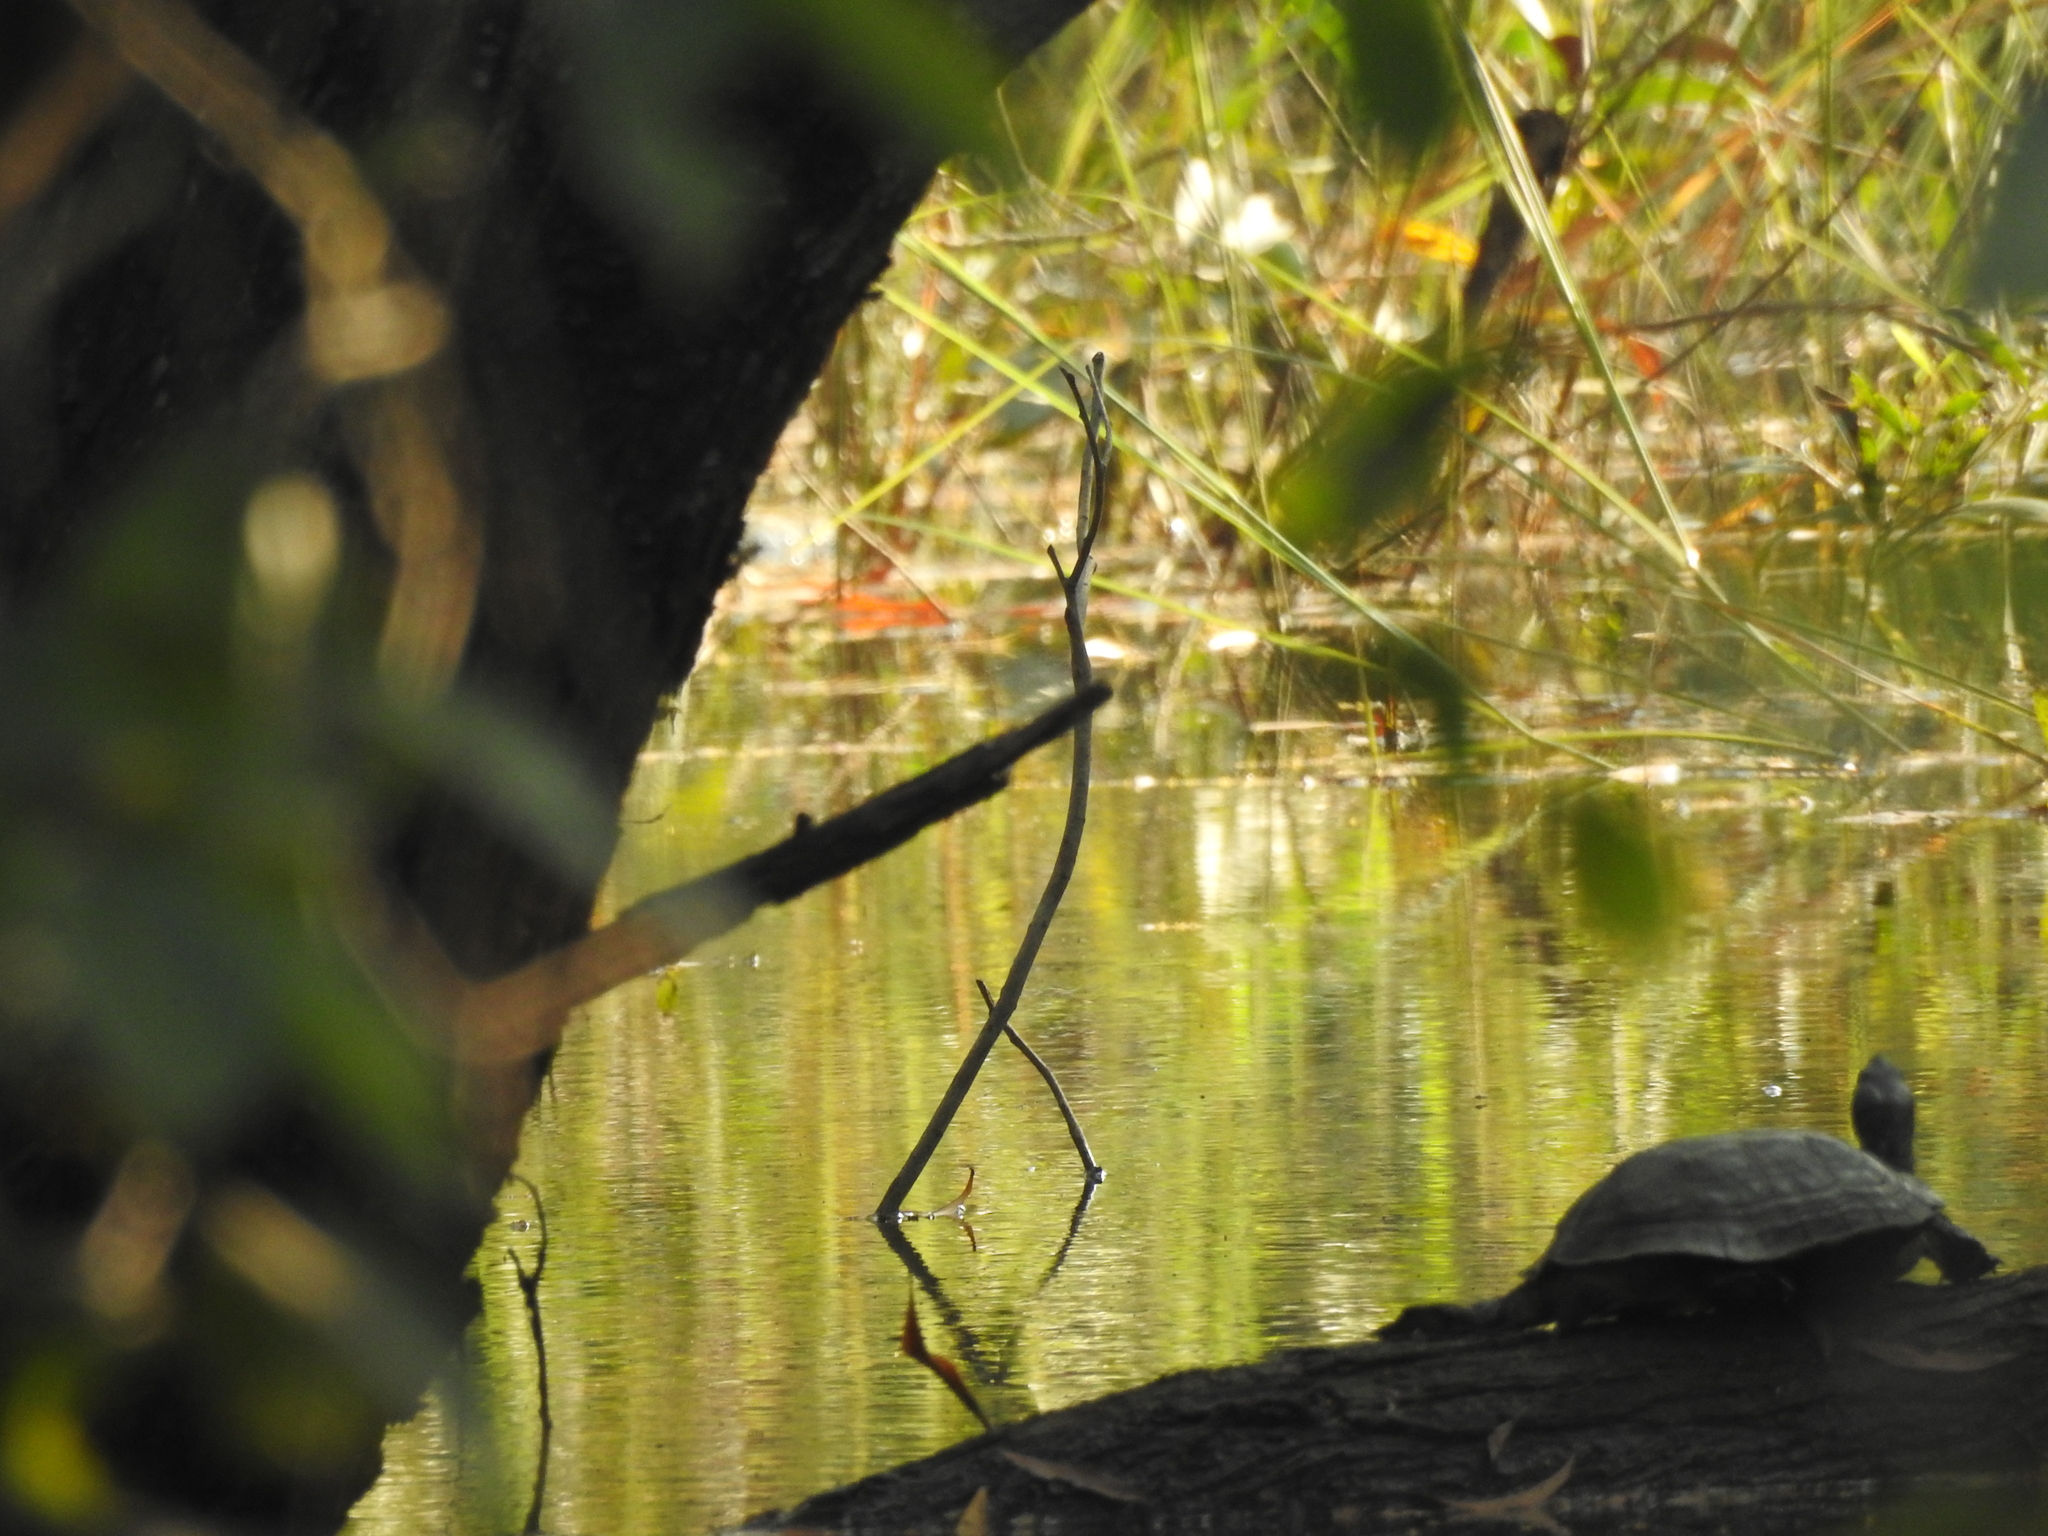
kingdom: Animalia
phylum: Chordata
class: Testudines
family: Geoemydidae
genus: Melanochelys
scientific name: Melanochelys trijuga
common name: Indian black turtle
